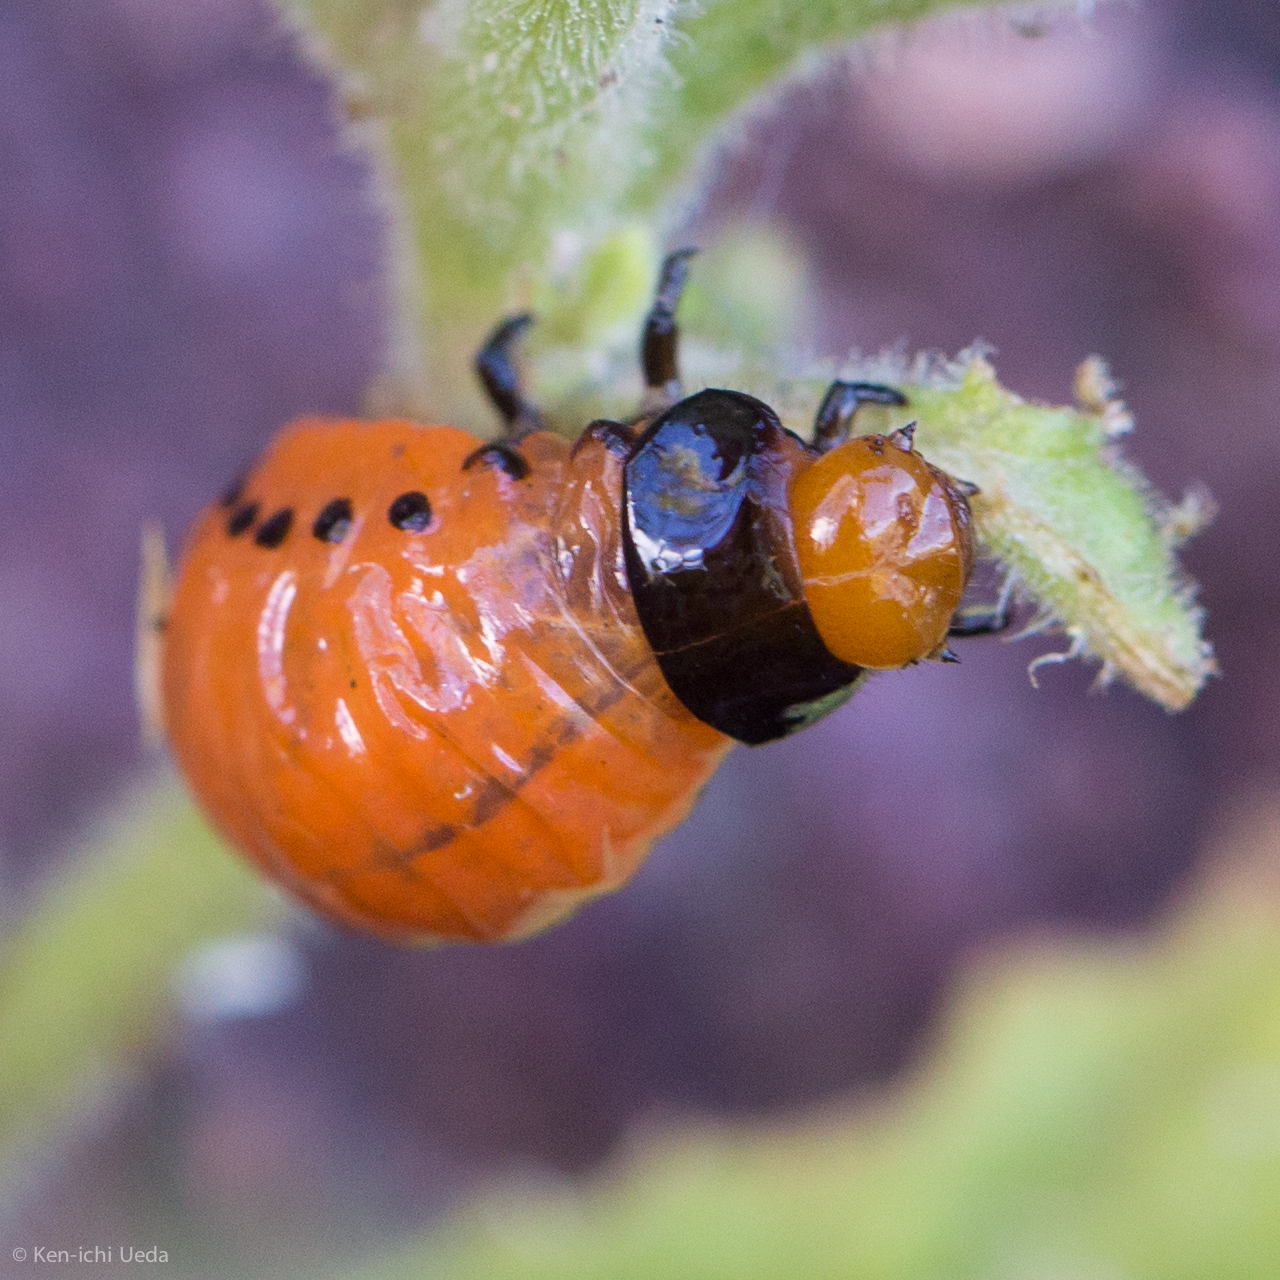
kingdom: Animalia
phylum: Arthropoda
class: Insecta
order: Coleoptera
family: Chrysomelidae
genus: Leptinotarsa
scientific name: Leptinotarsa rubiginosa
